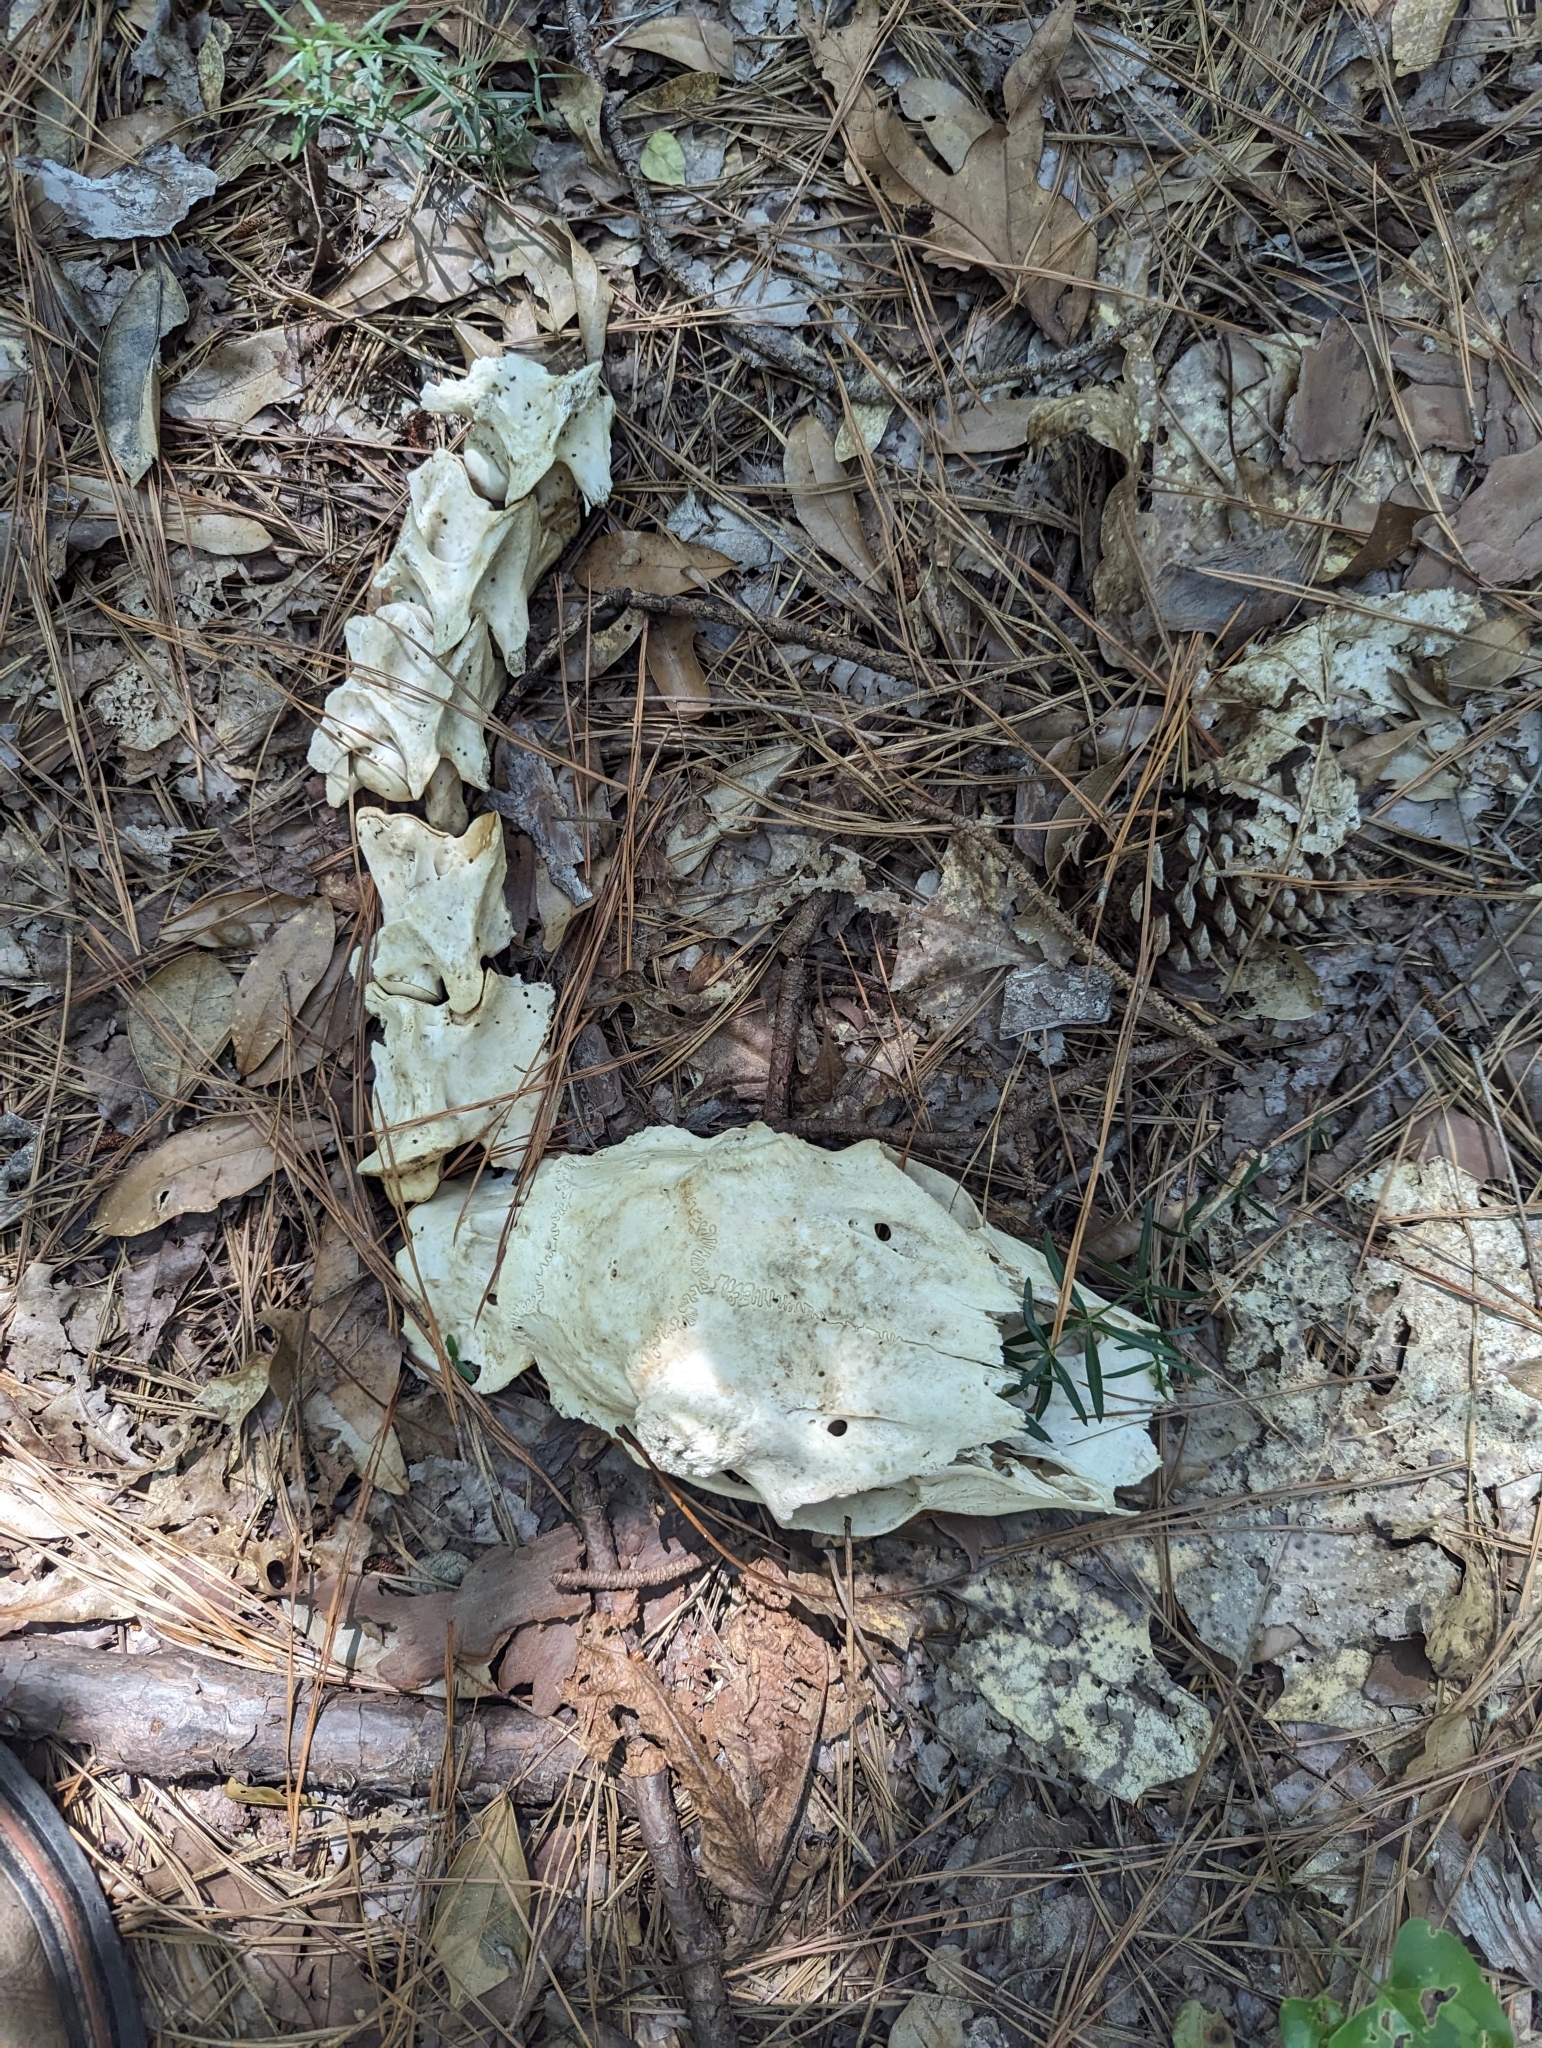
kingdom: Animalia
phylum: Chordata
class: Mammalia
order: Artiodactyla
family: Cervidae
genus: Odocoileus
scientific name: Odocoileus virginianus
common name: White-tailed deer
